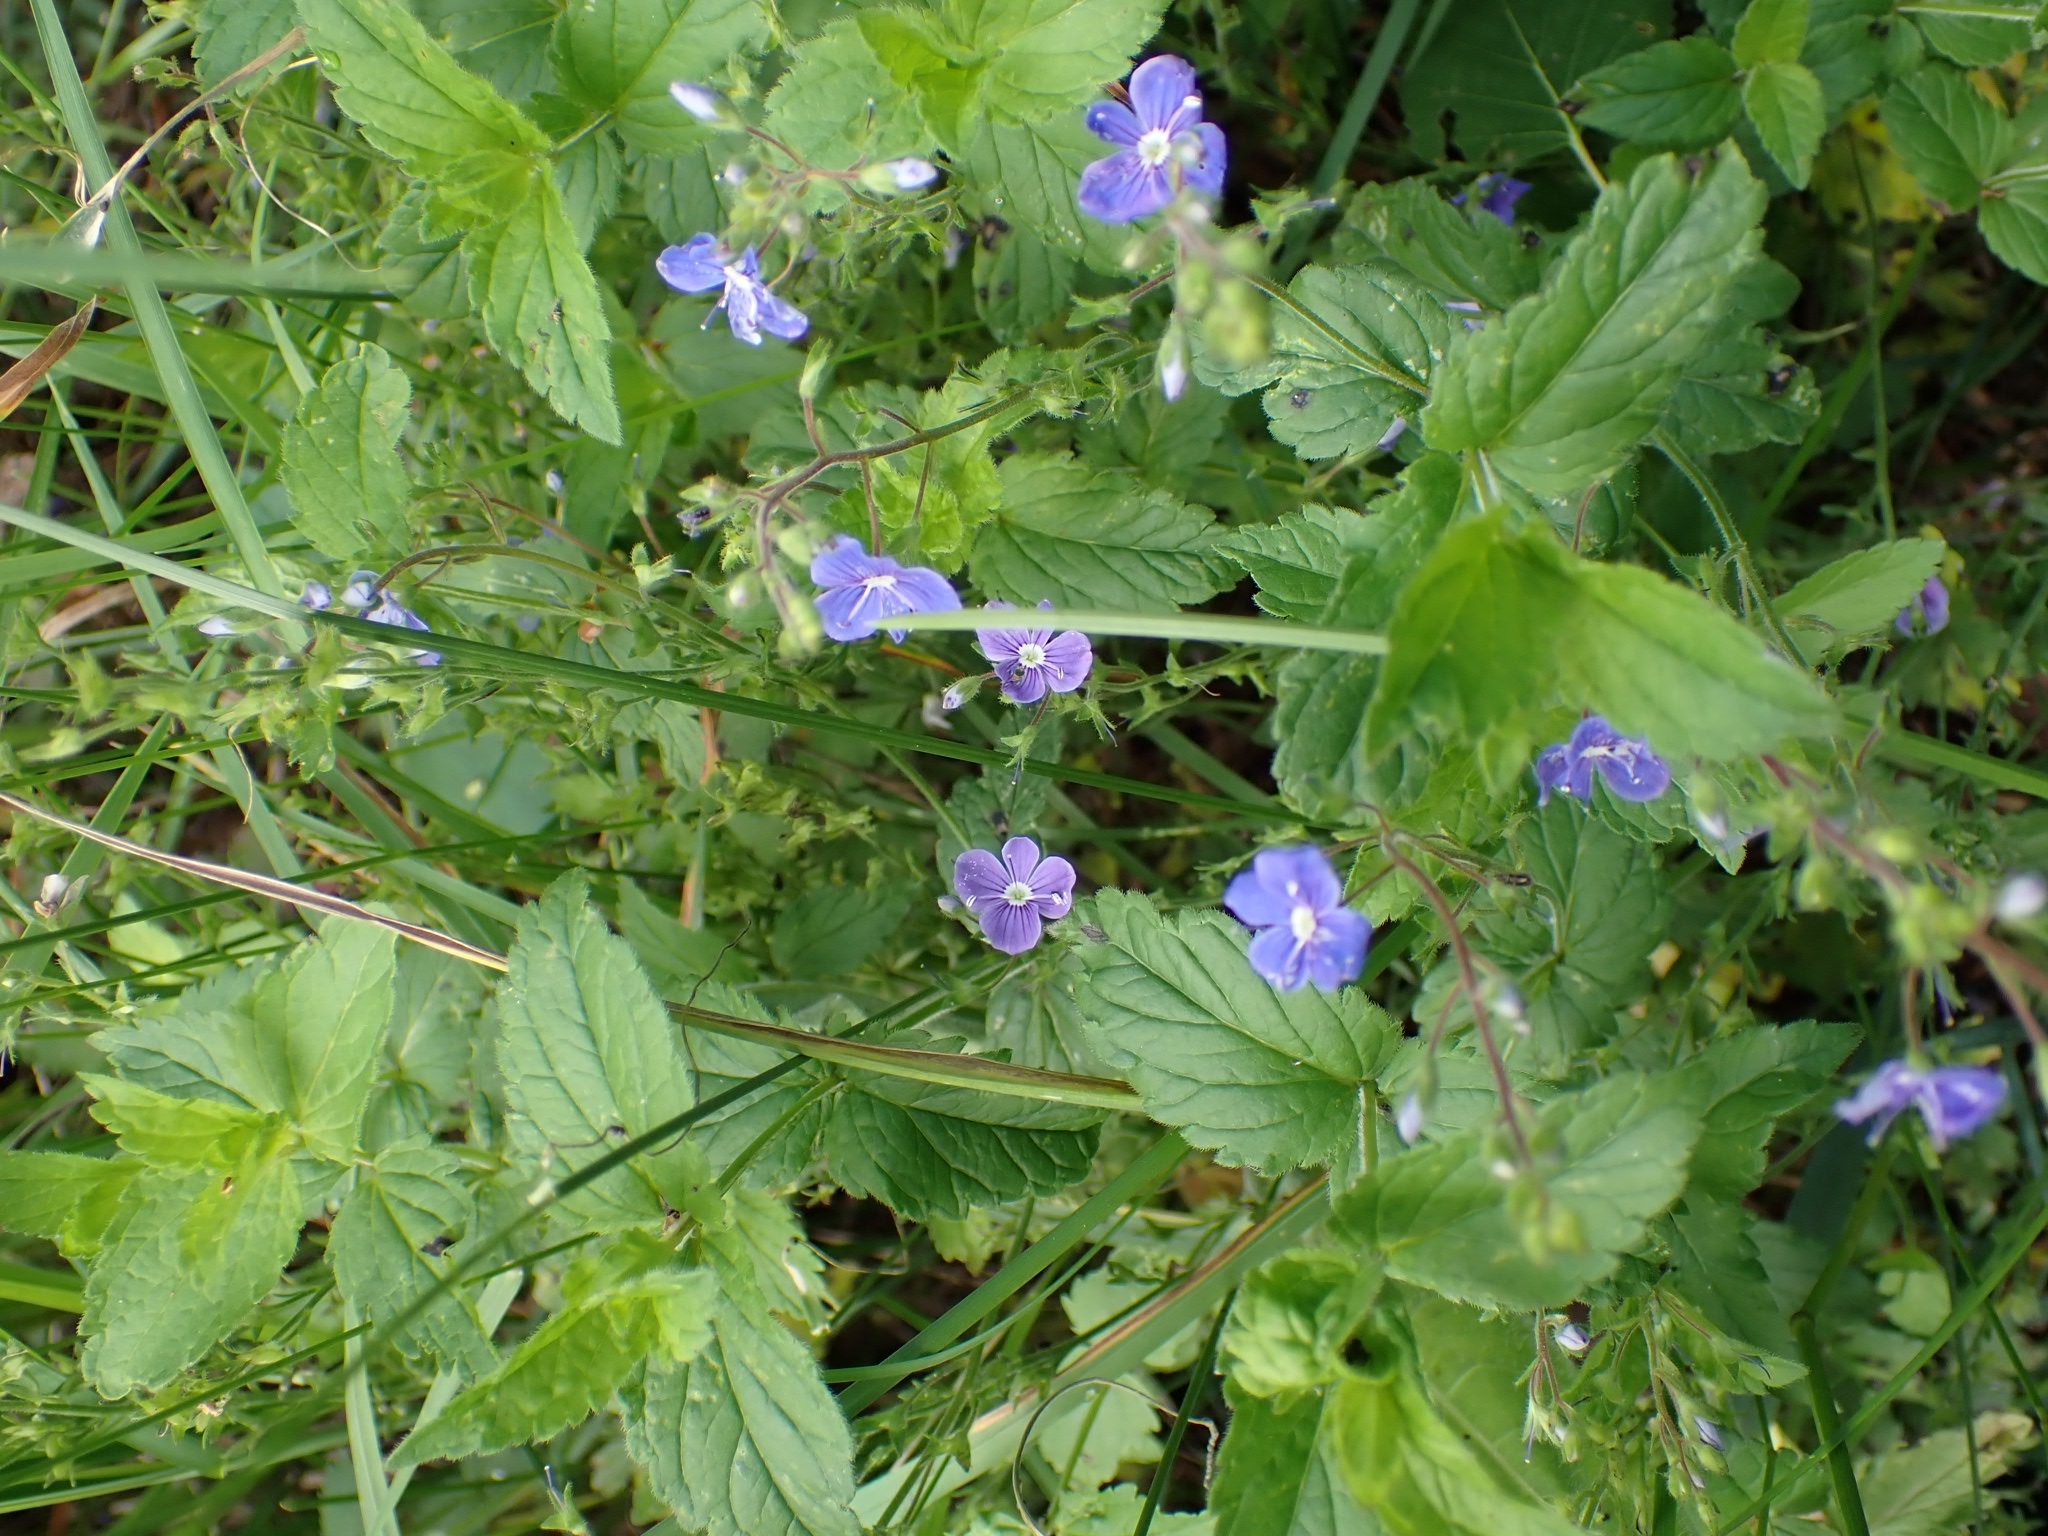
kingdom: Plantae
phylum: Tracheophyta
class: Magnoliopsida
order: Lamiales
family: Plantaginaceae
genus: Veronica
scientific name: Veronica chamaedrys
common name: Germander speedwell
